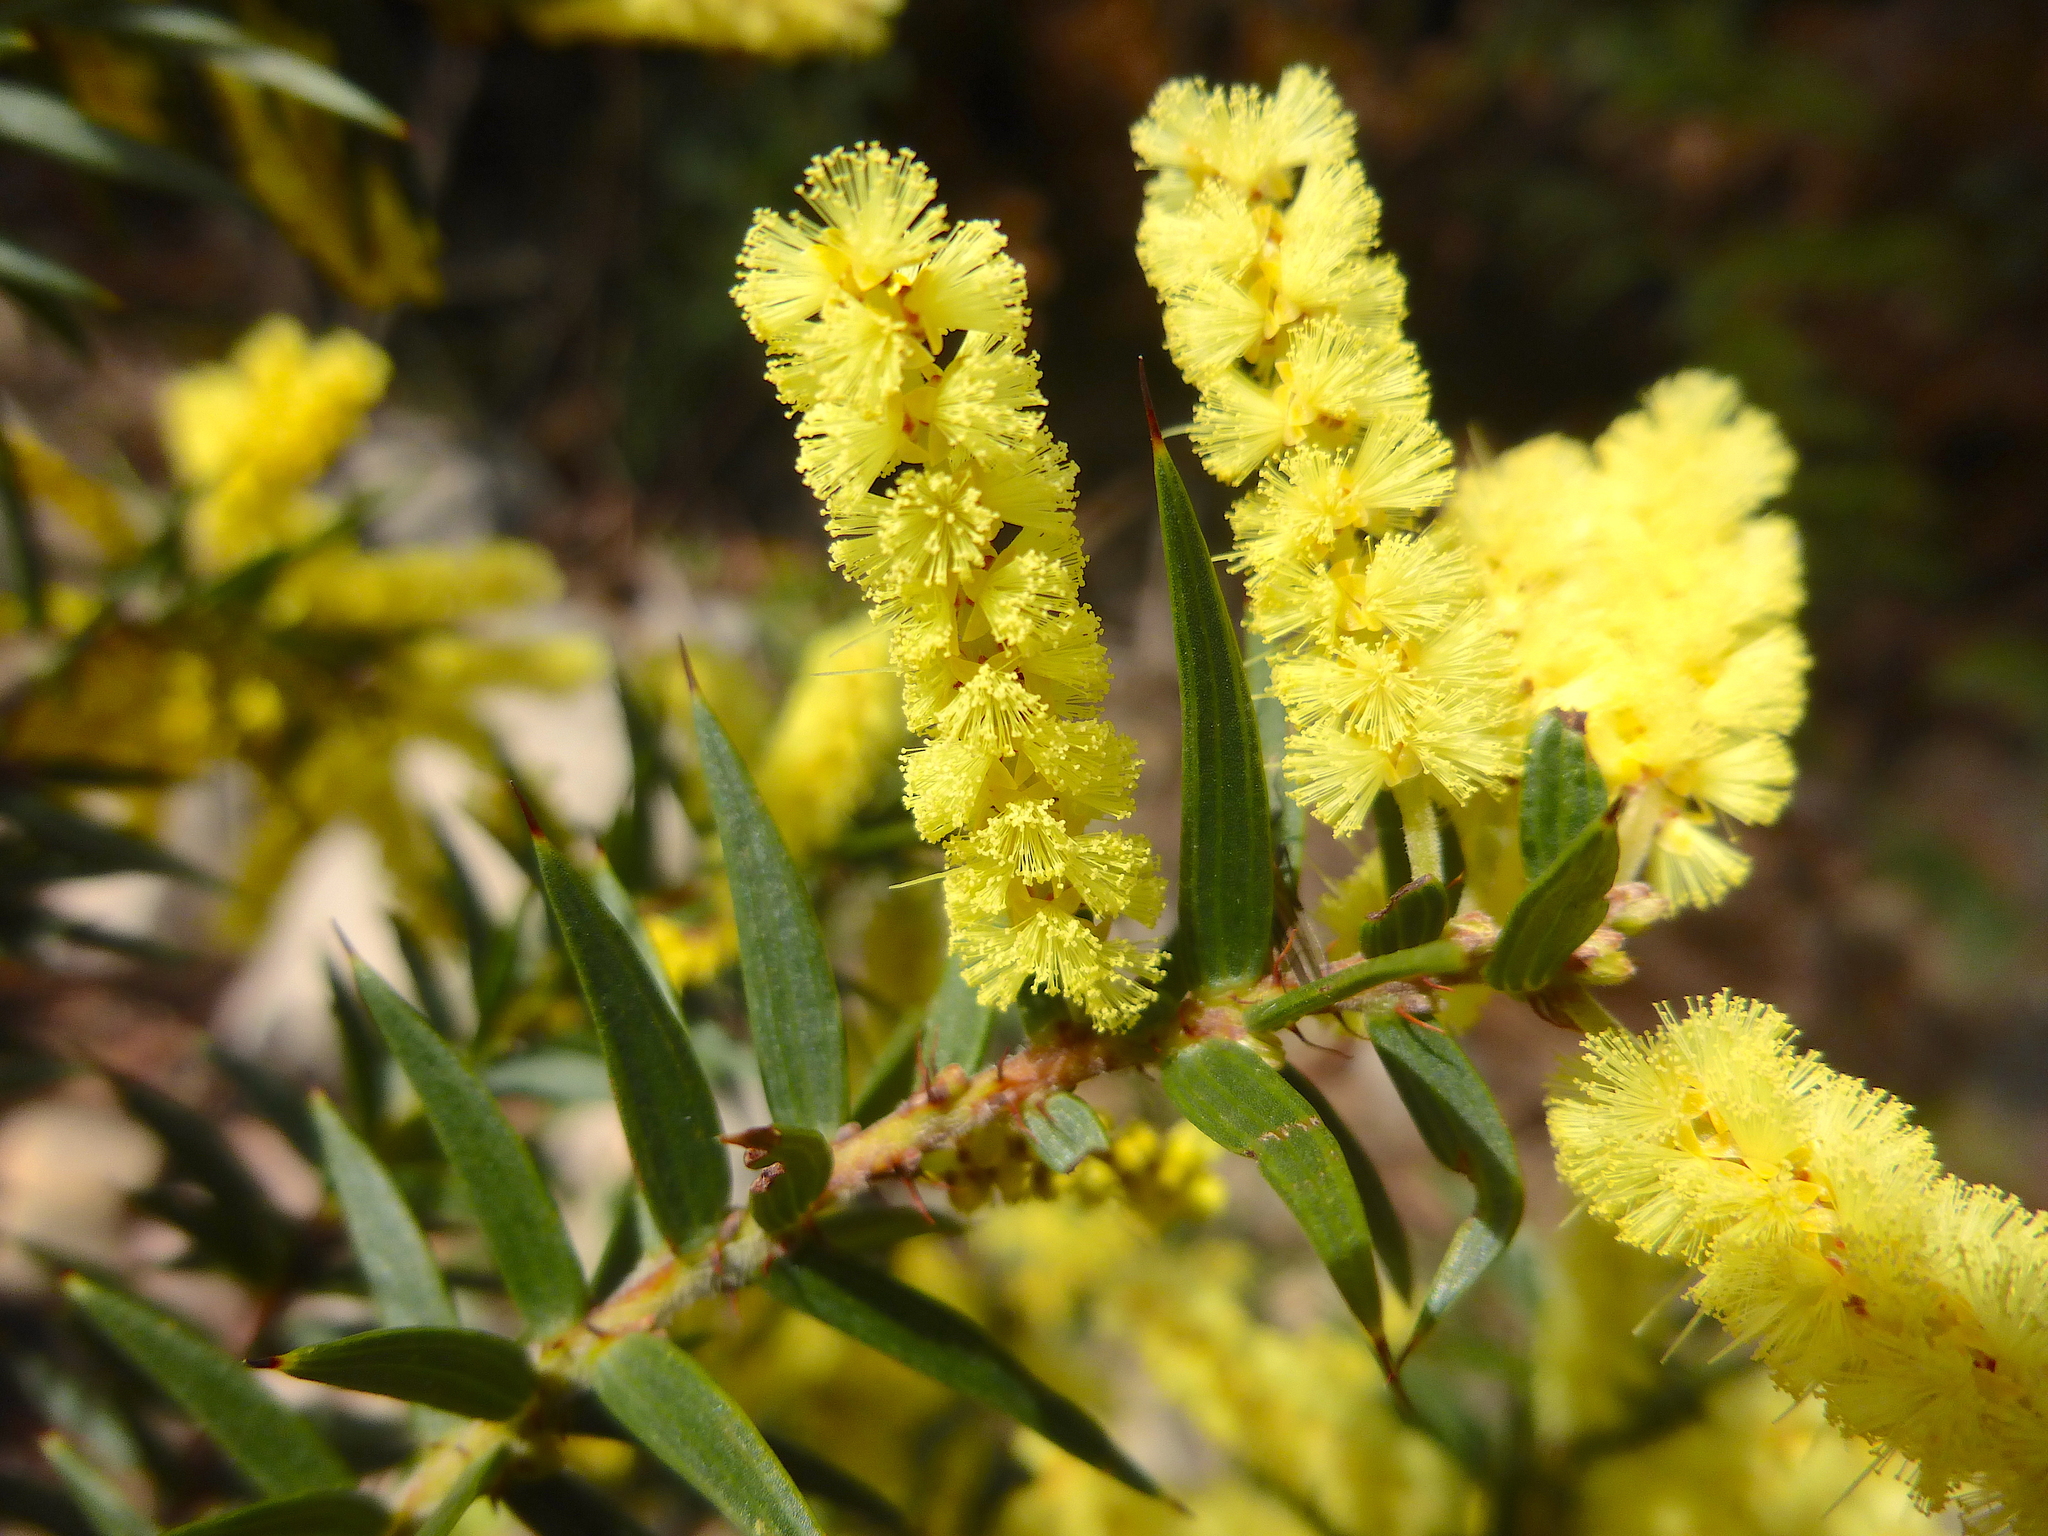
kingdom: Plantae
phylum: Tracheophyta
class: Magnoliopsida
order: Fabales
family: Fabaceae
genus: Acacia
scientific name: Acacia oxycedrus
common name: Spike wattle
